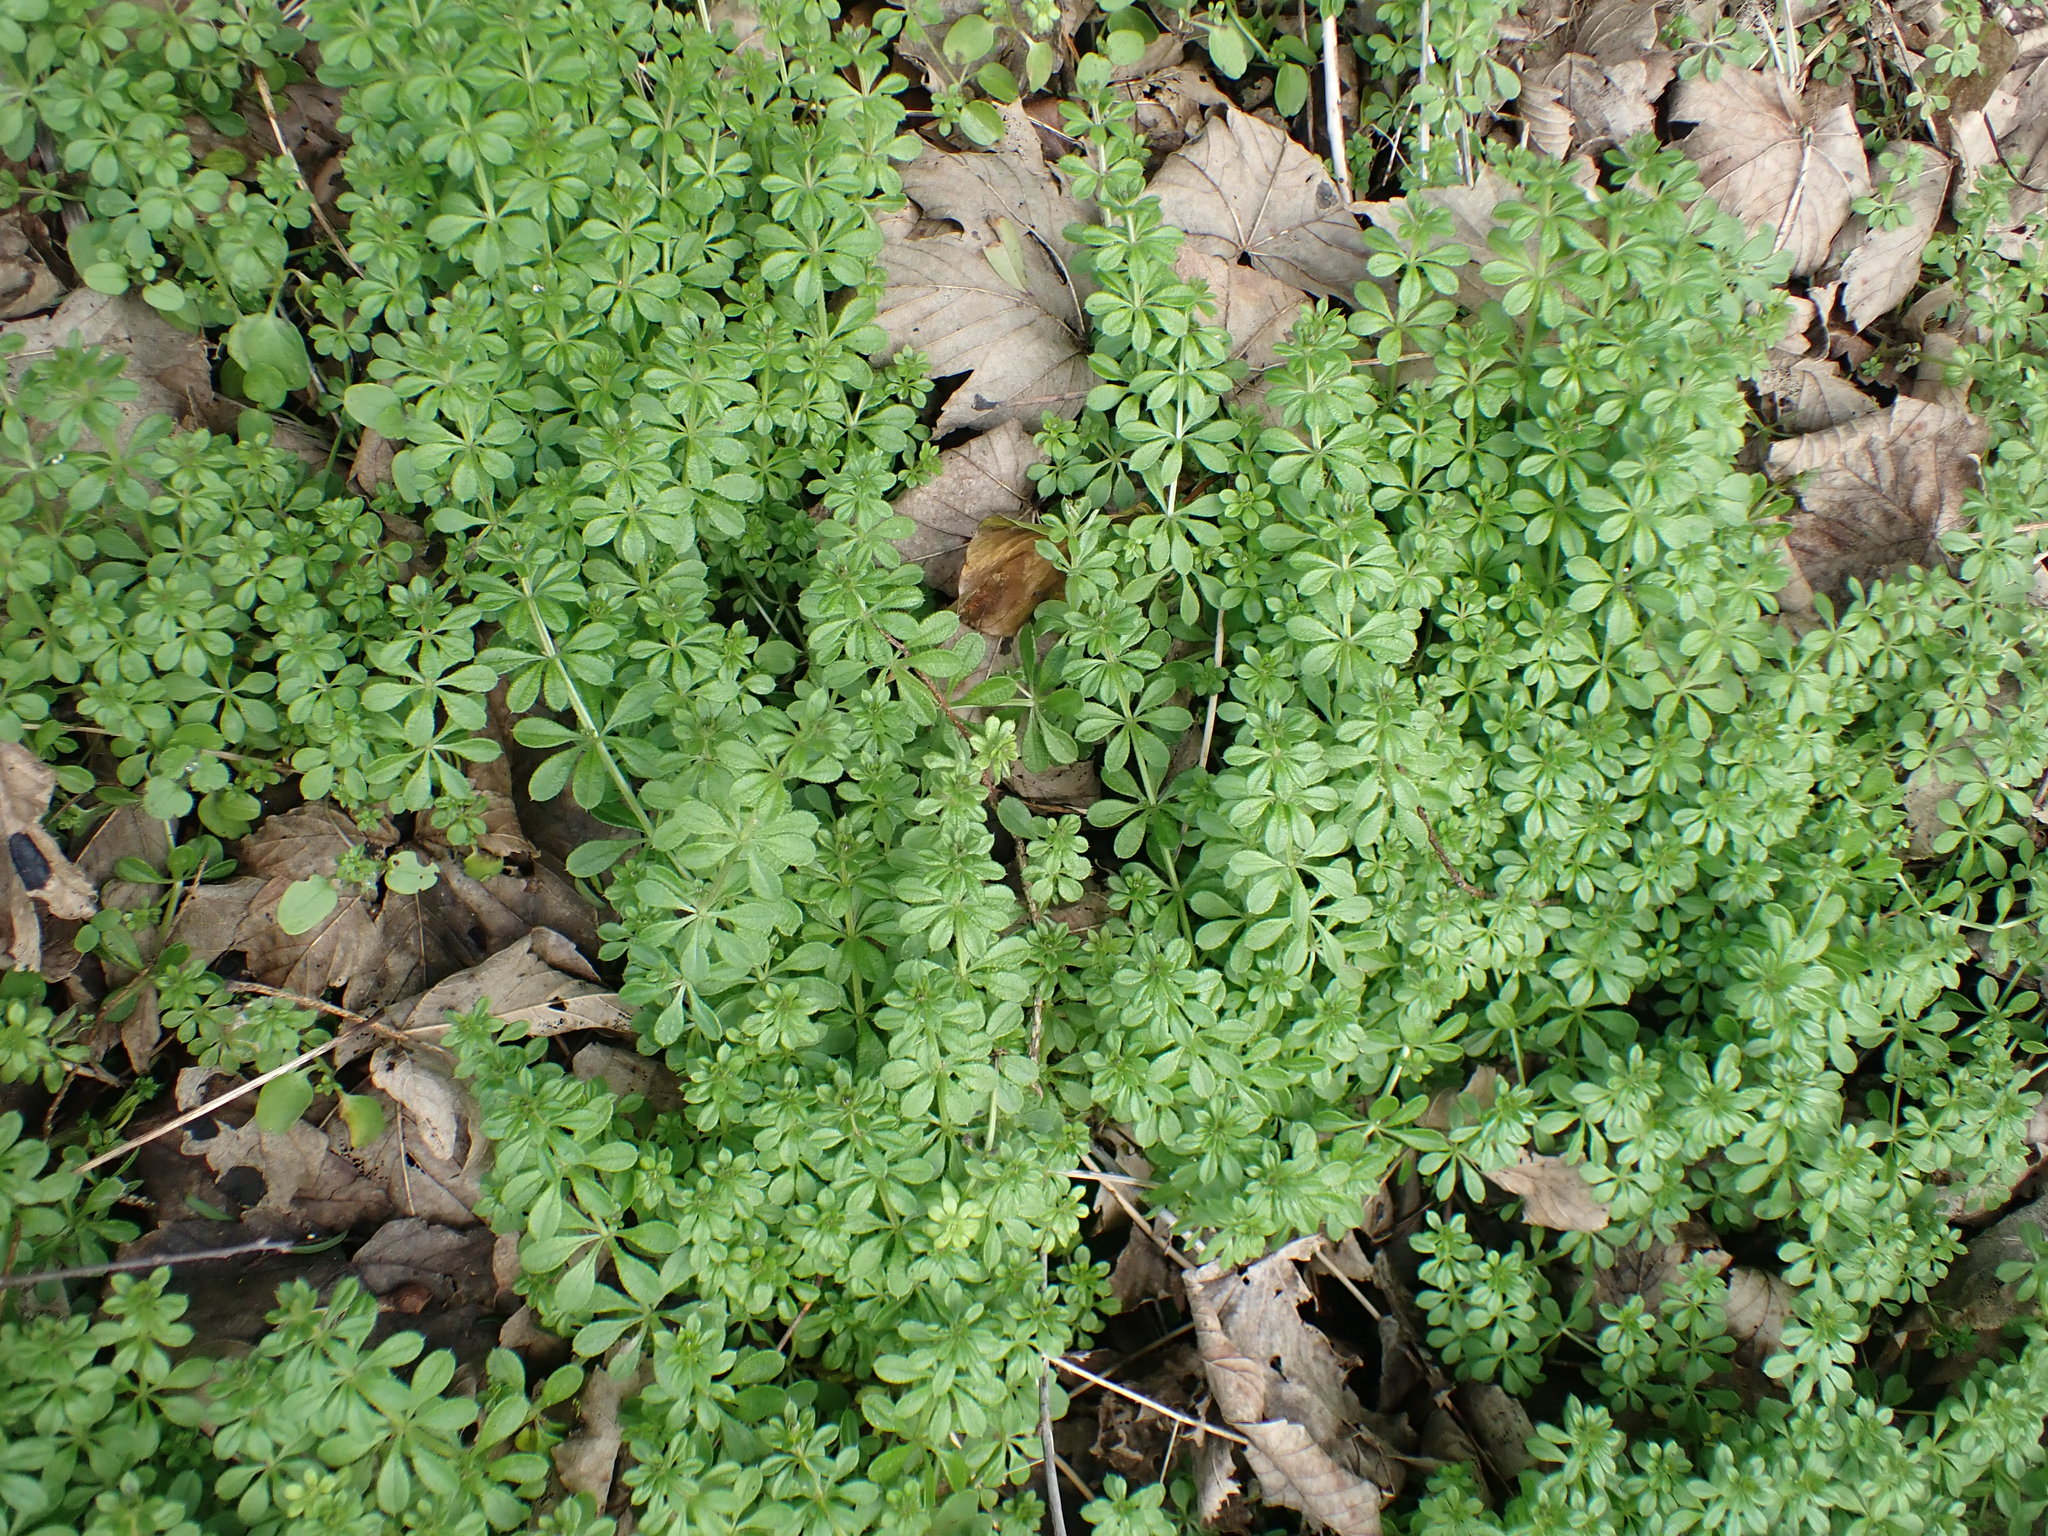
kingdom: Plantae
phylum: Tracheophyta
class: Magnoliopsida
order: Gentianales
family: Rubiaceae
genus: Galium
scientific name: Galium aparine
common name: Cleavers
